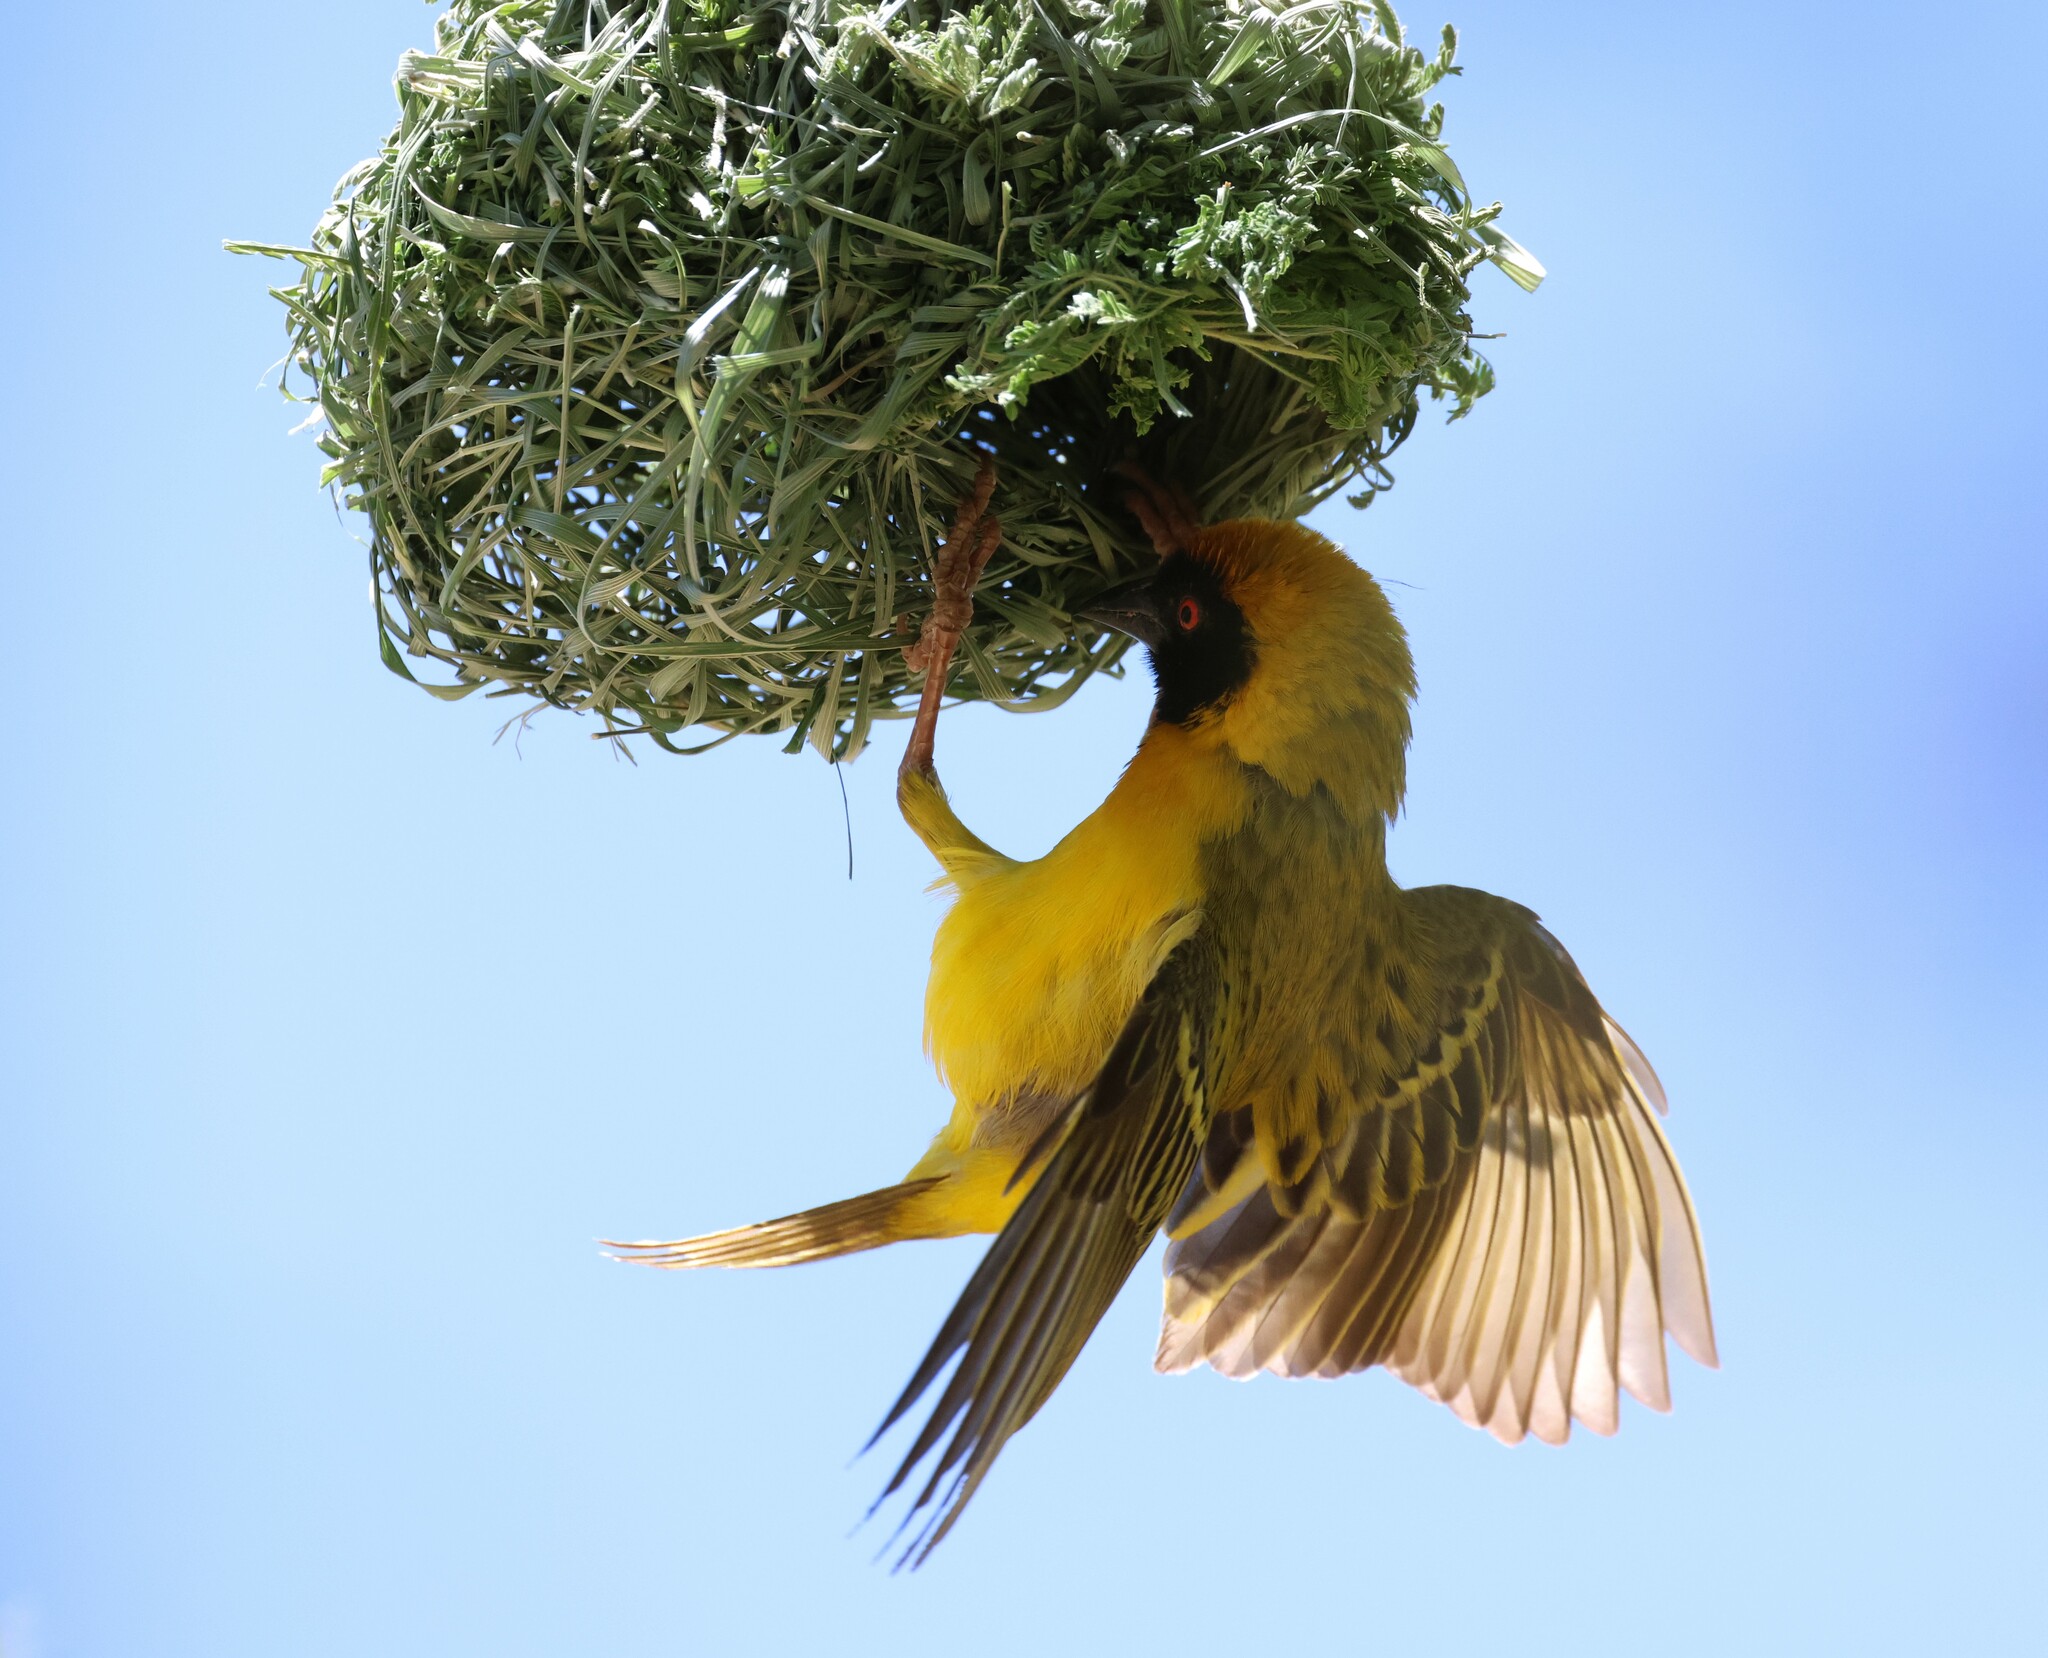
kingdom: Animalia
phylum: Chordata
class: Aves
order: Passeriformes
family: Ploceidae
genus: Ploceus
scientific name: Ploceus velatus
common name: Southern masked weaver
